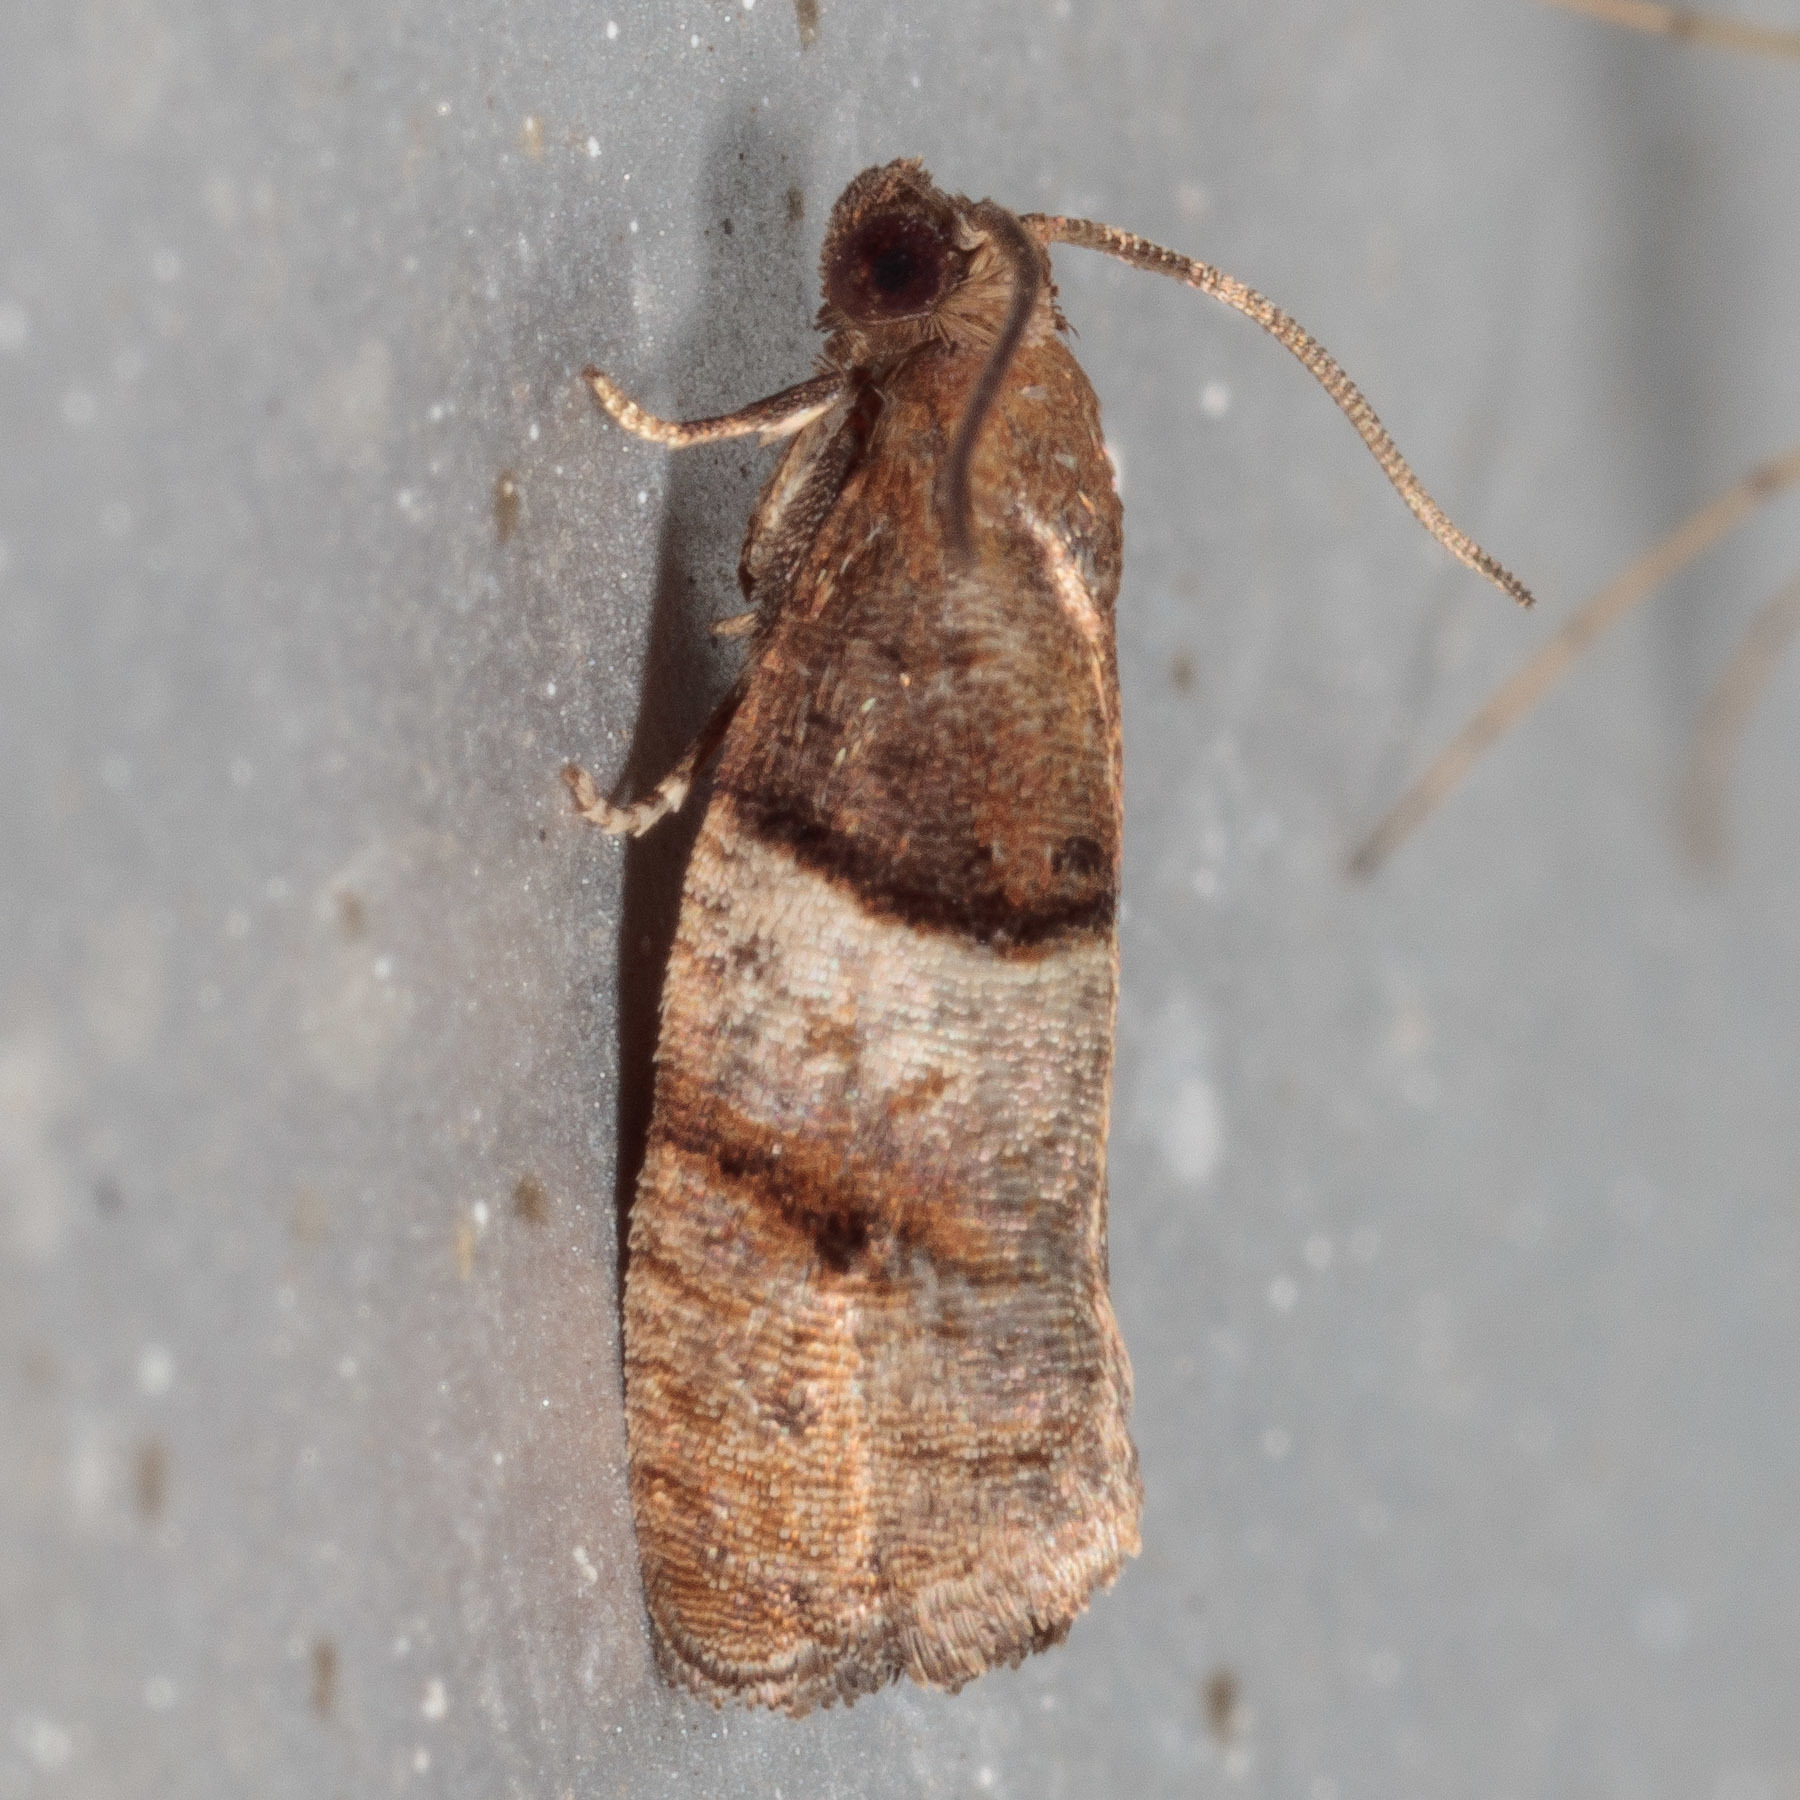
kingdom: Animalia
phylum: Arthropoda
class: Insecta
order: Lepidoptera
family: Tortricidae
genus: Larisa
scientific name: Larisa subsolana
